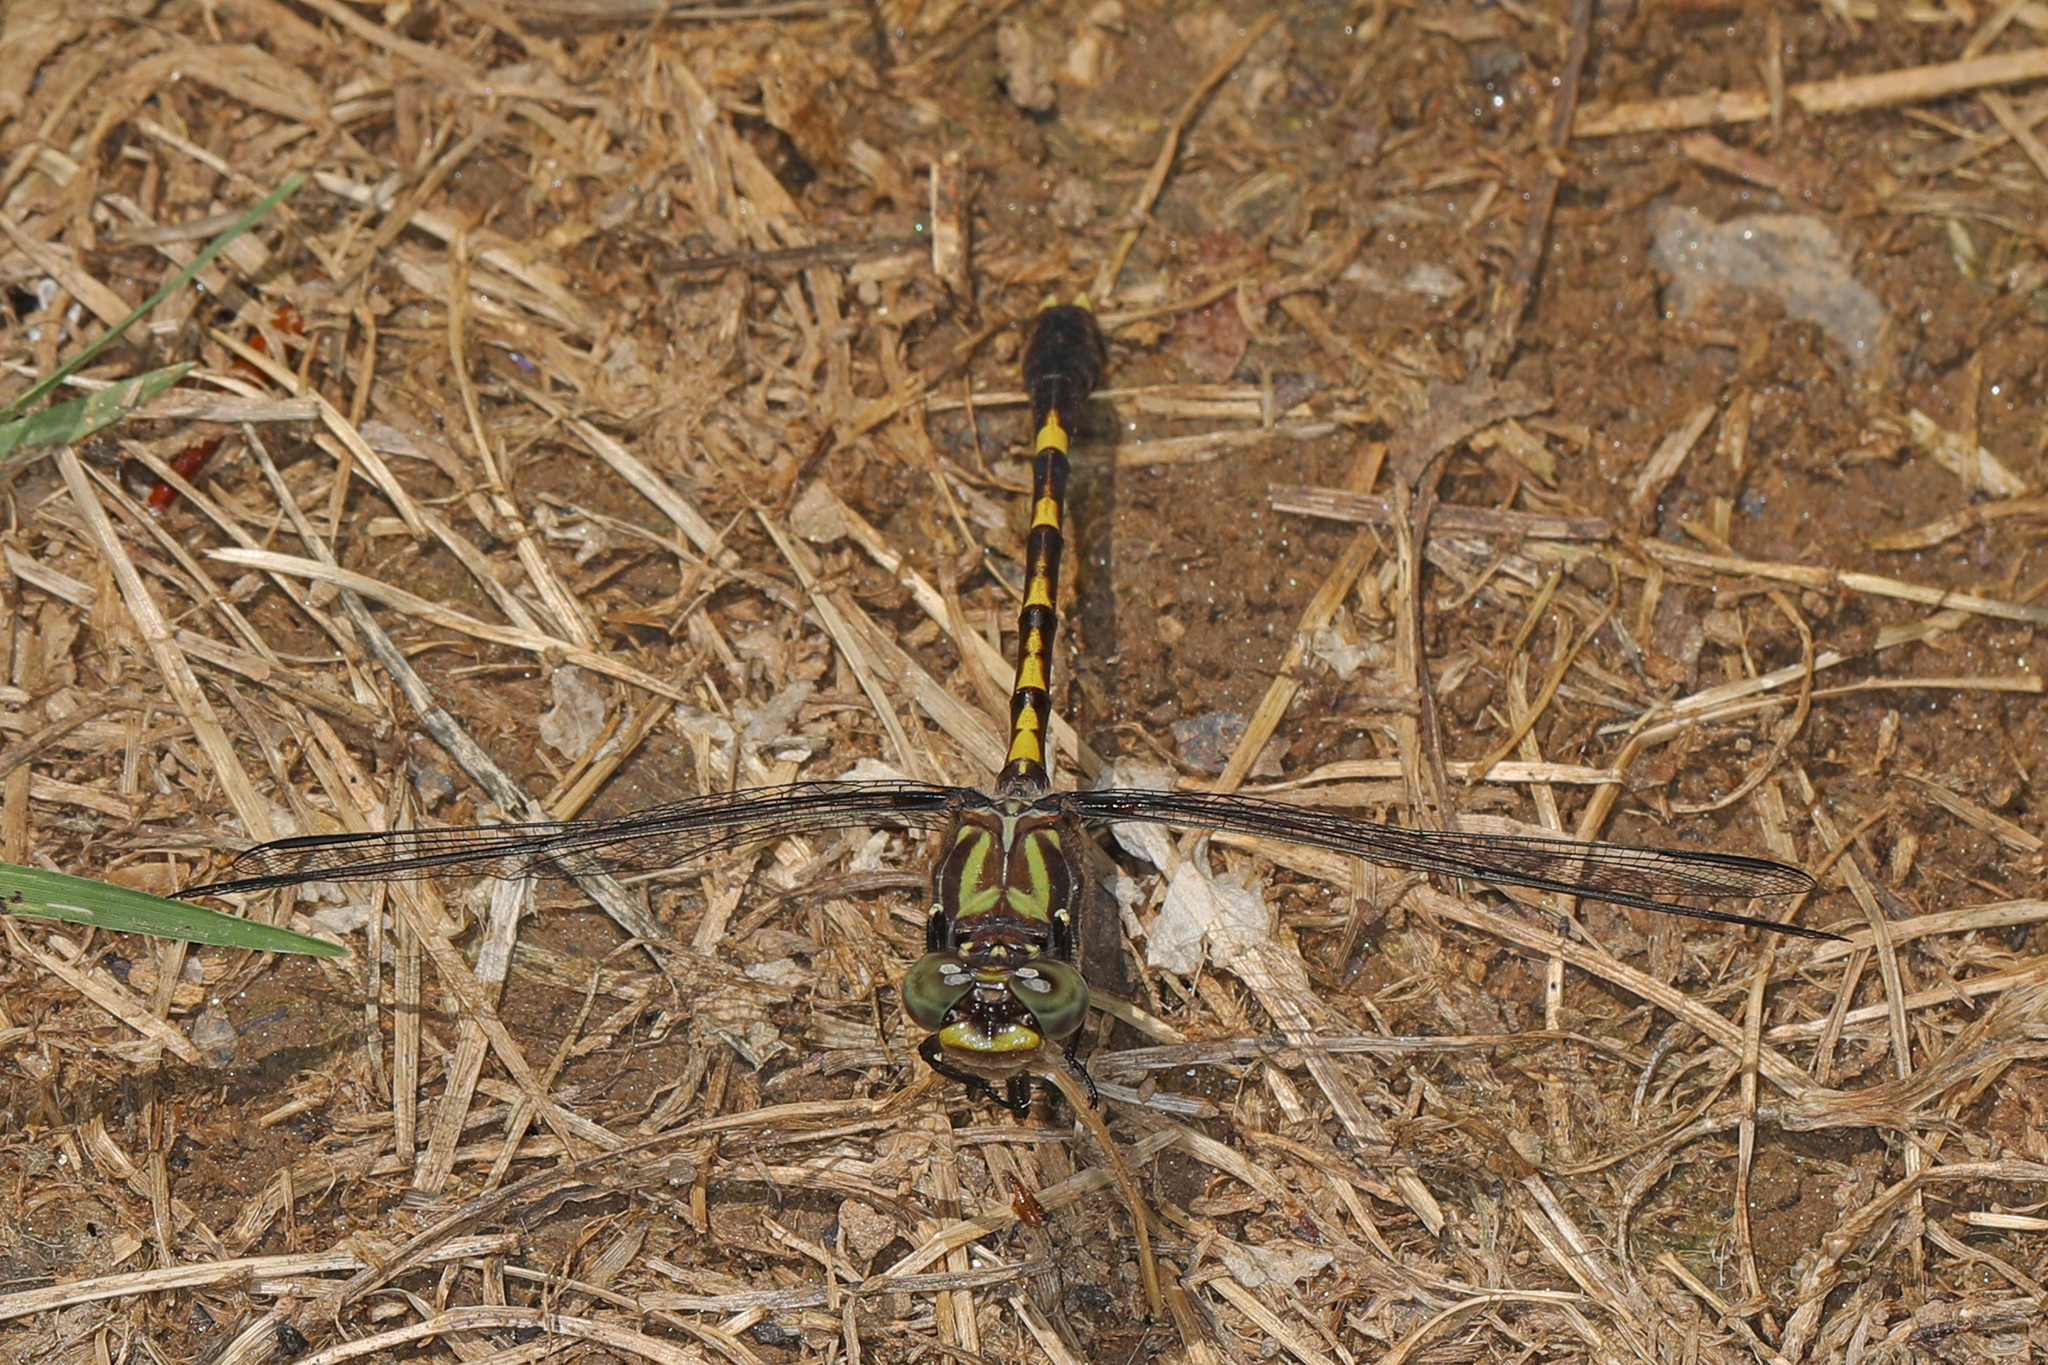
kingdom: Animalia
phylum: Arthropoda
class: Insecta
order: Odonata
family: Gomphidae
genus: Progomphus
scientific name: Progomphus obscurus
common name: Common sanddragon
